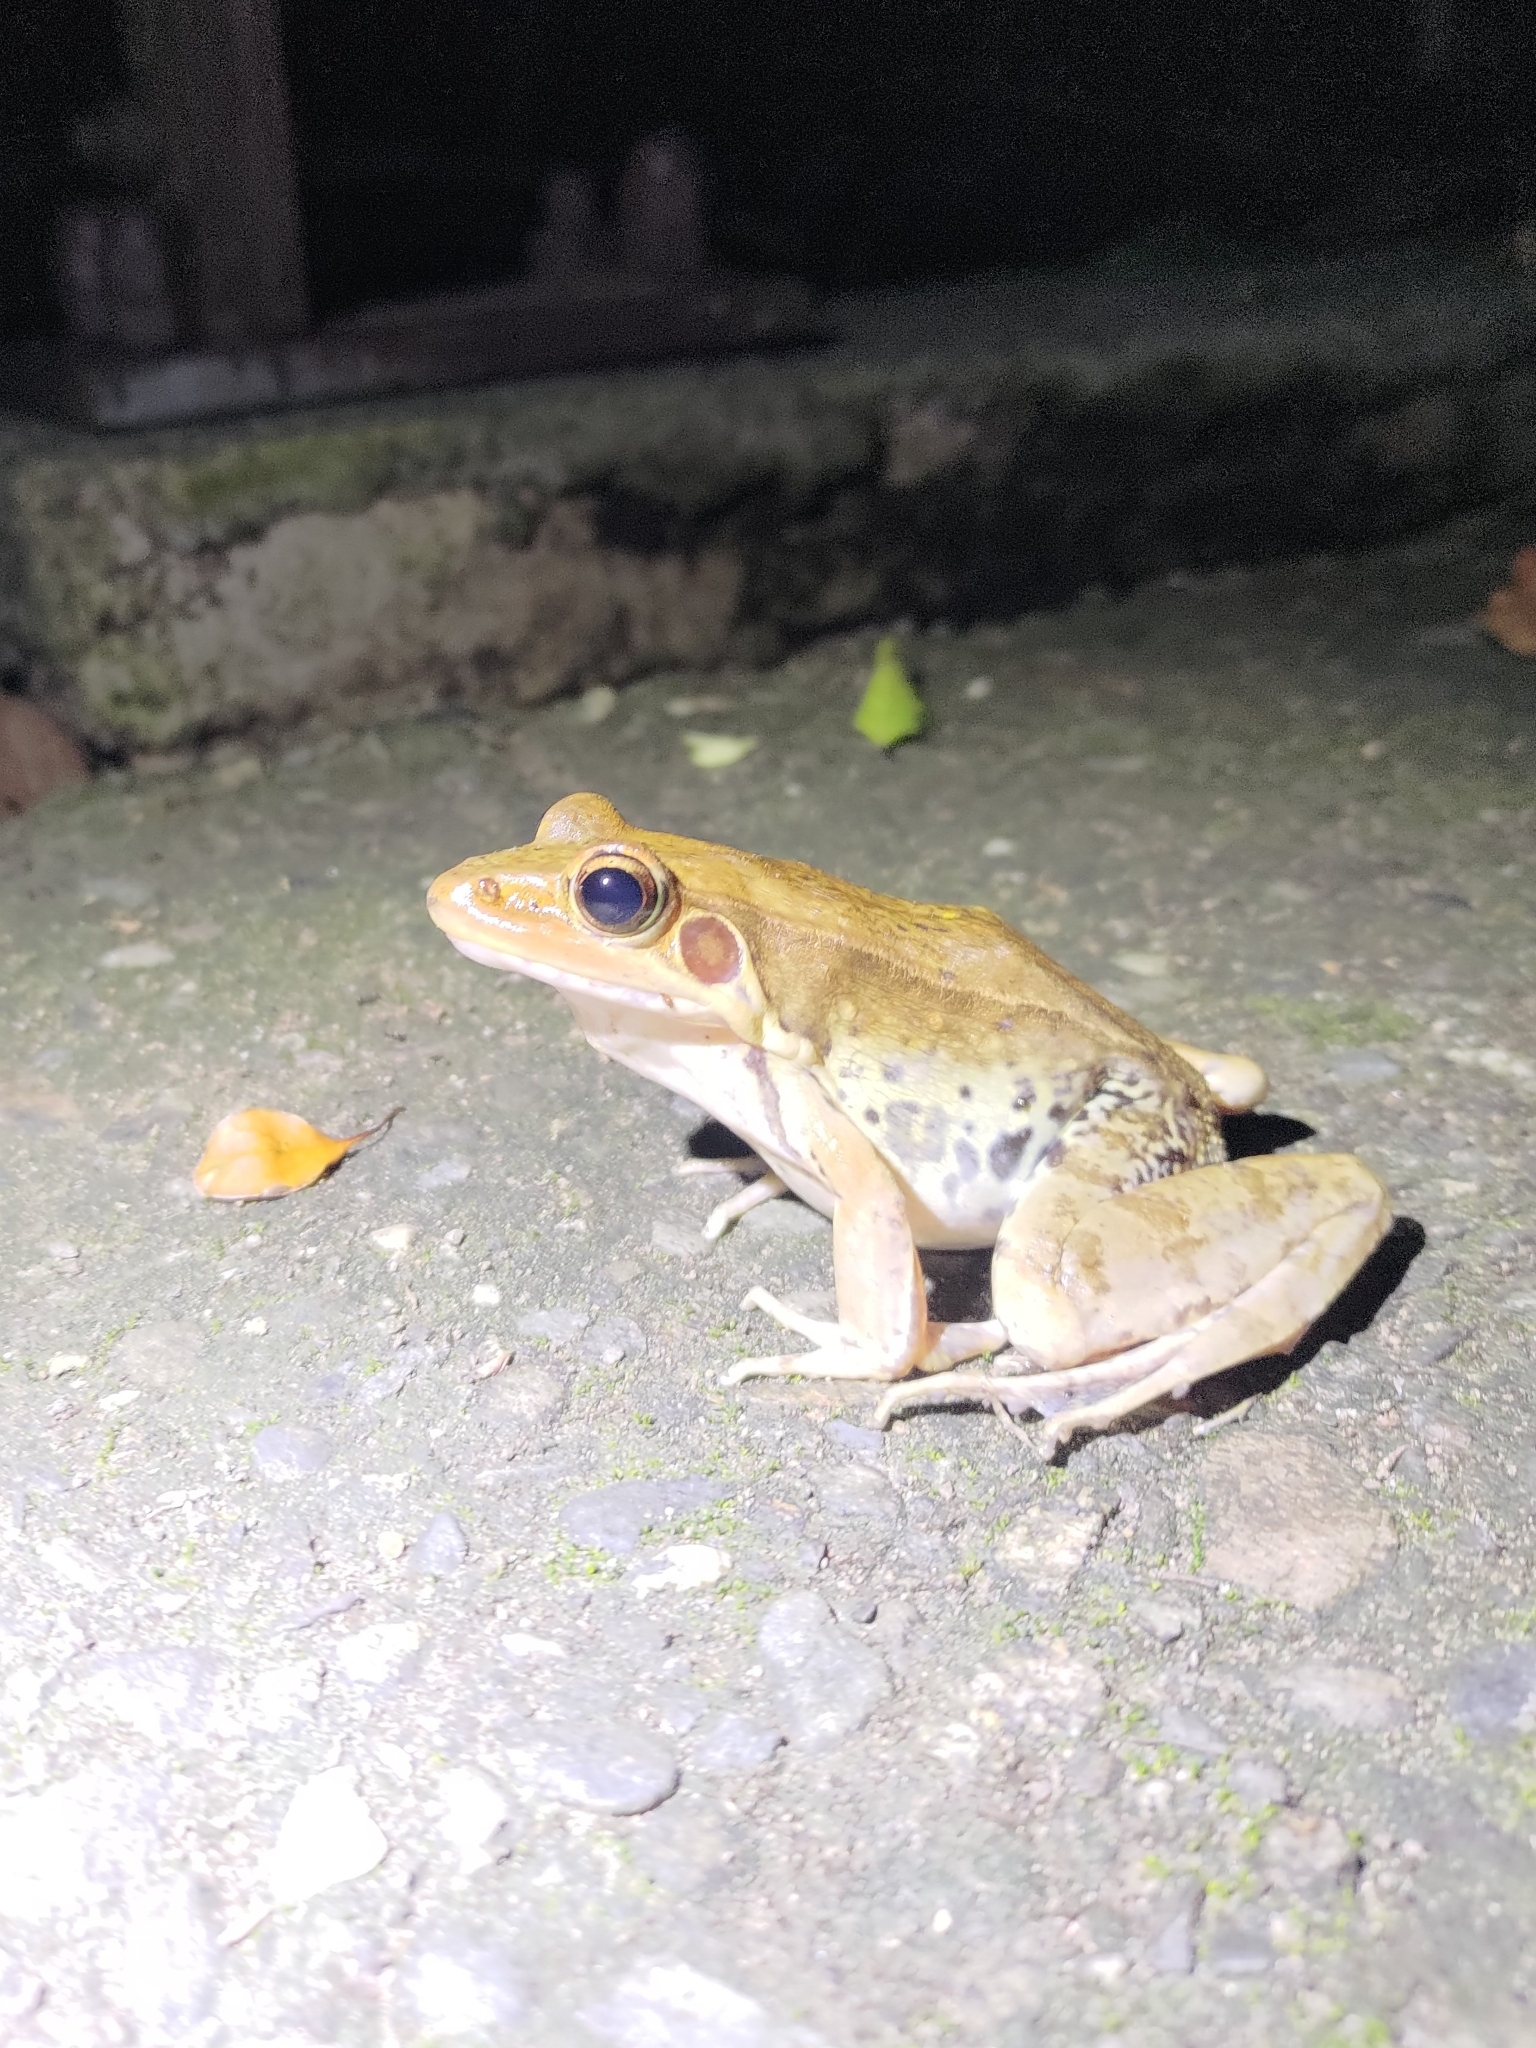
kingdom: Animalia
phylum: Chordata
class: Amphibia
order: Anura
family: Ranidae
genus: Sylvirana
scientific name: Sylvirana guentheri
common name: Guenther's amoy frog
